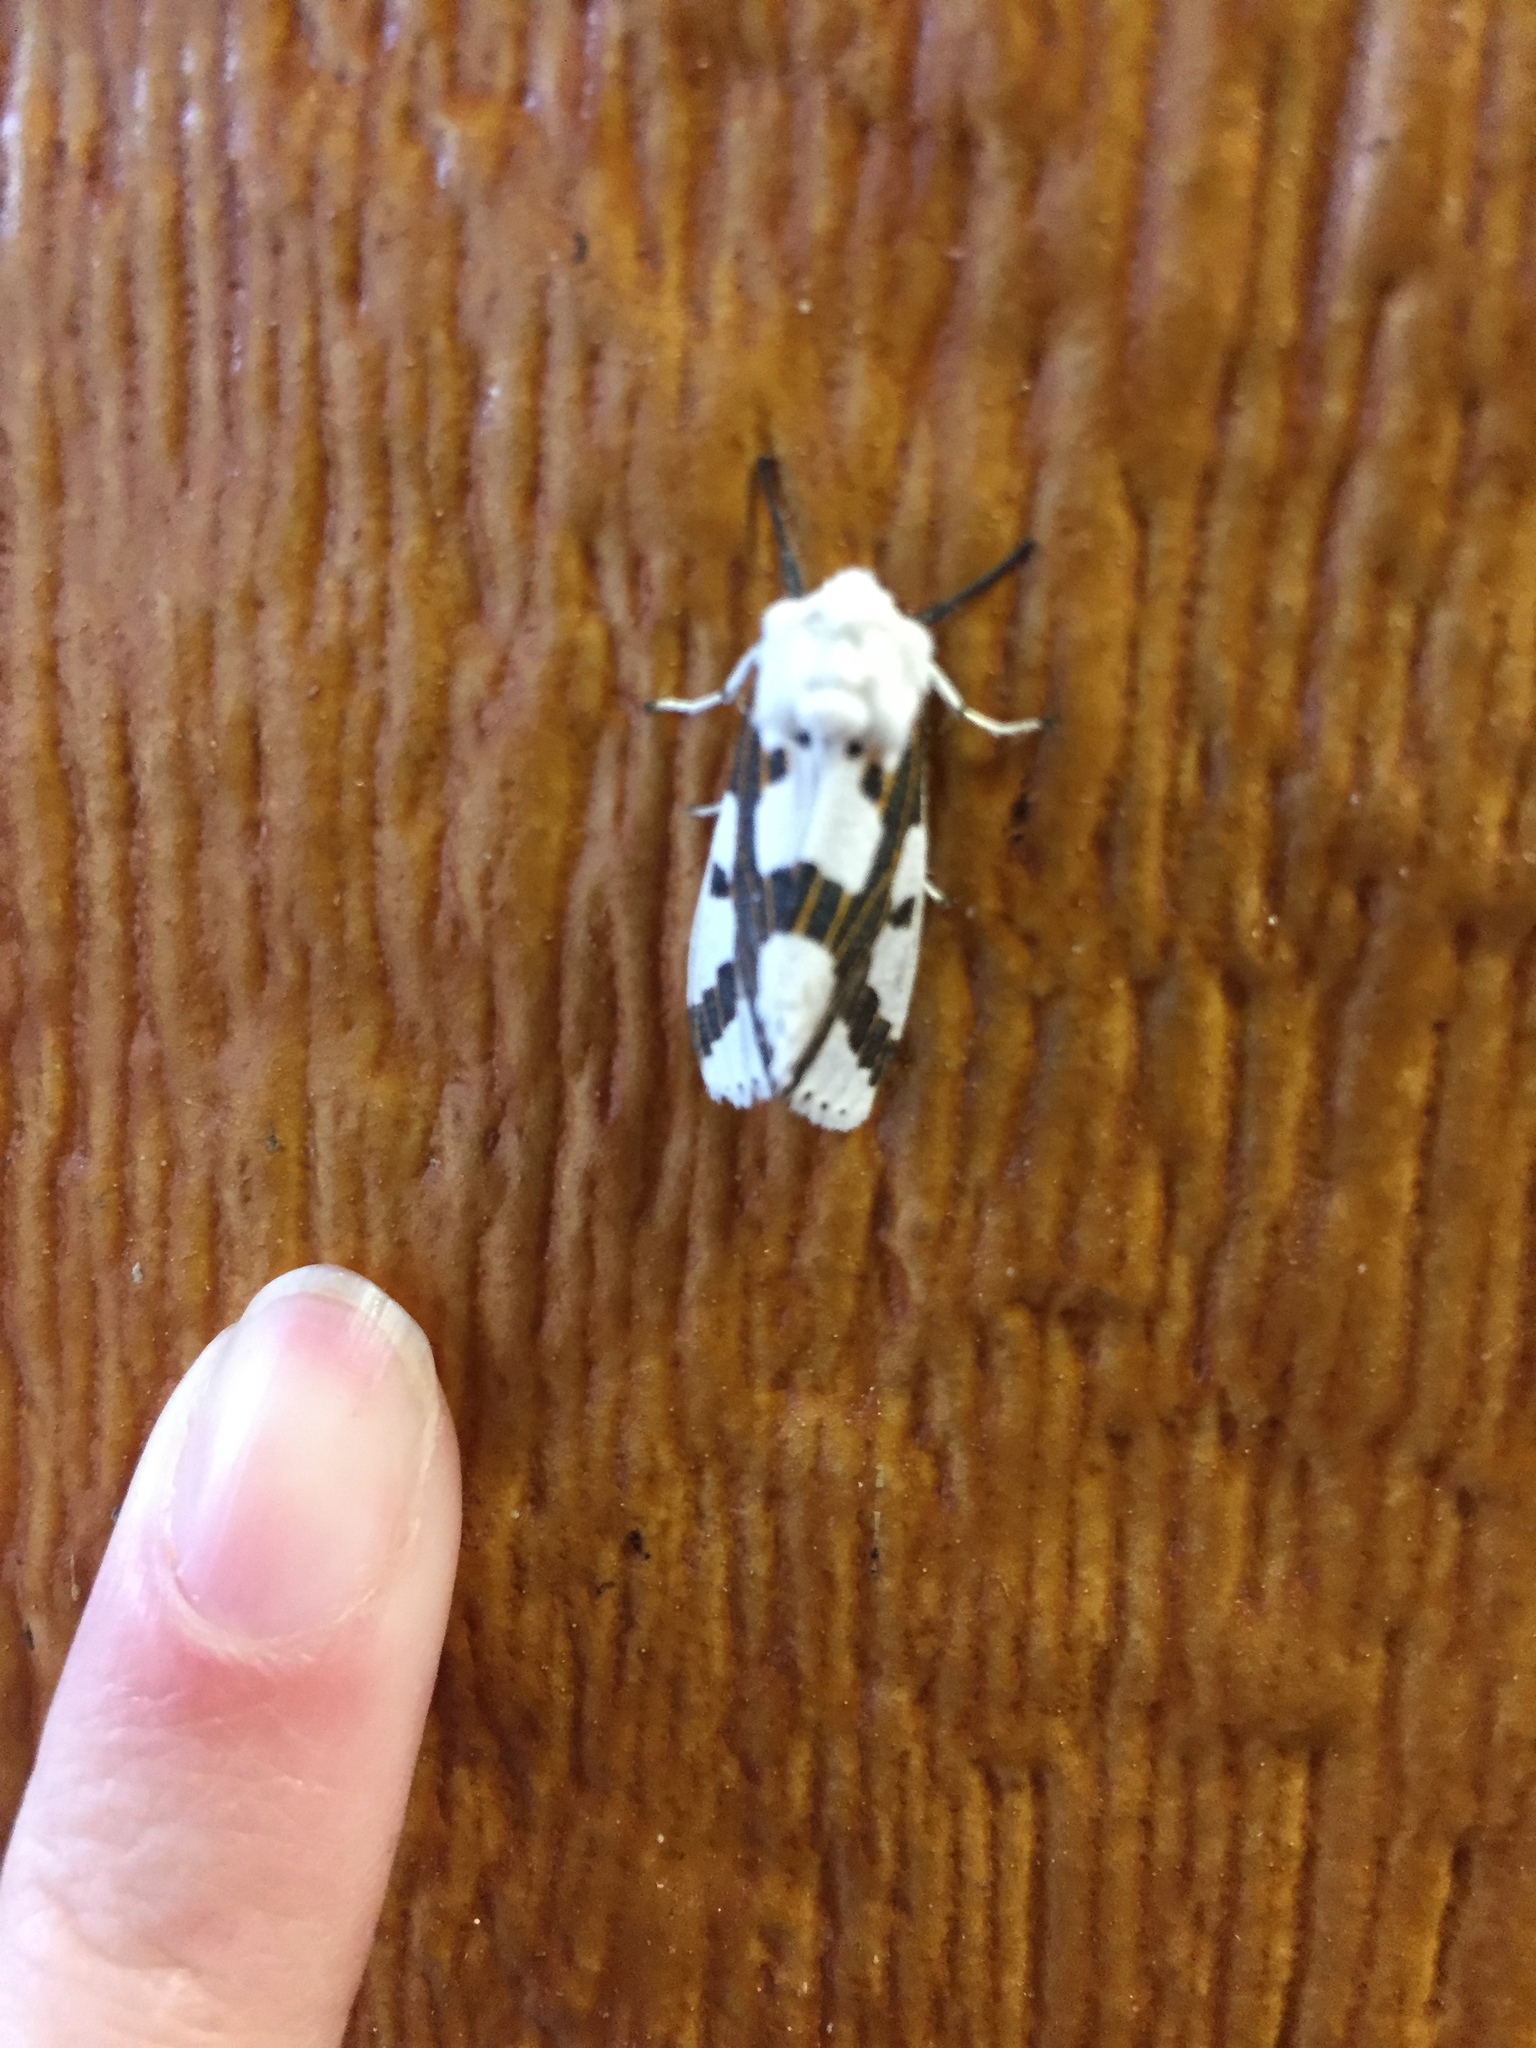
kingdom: Animalia
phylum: Arthropoda
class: Insecta
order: Lepidoptera
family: Erebidae
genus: Euerythra
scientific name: Euerythra phasma
